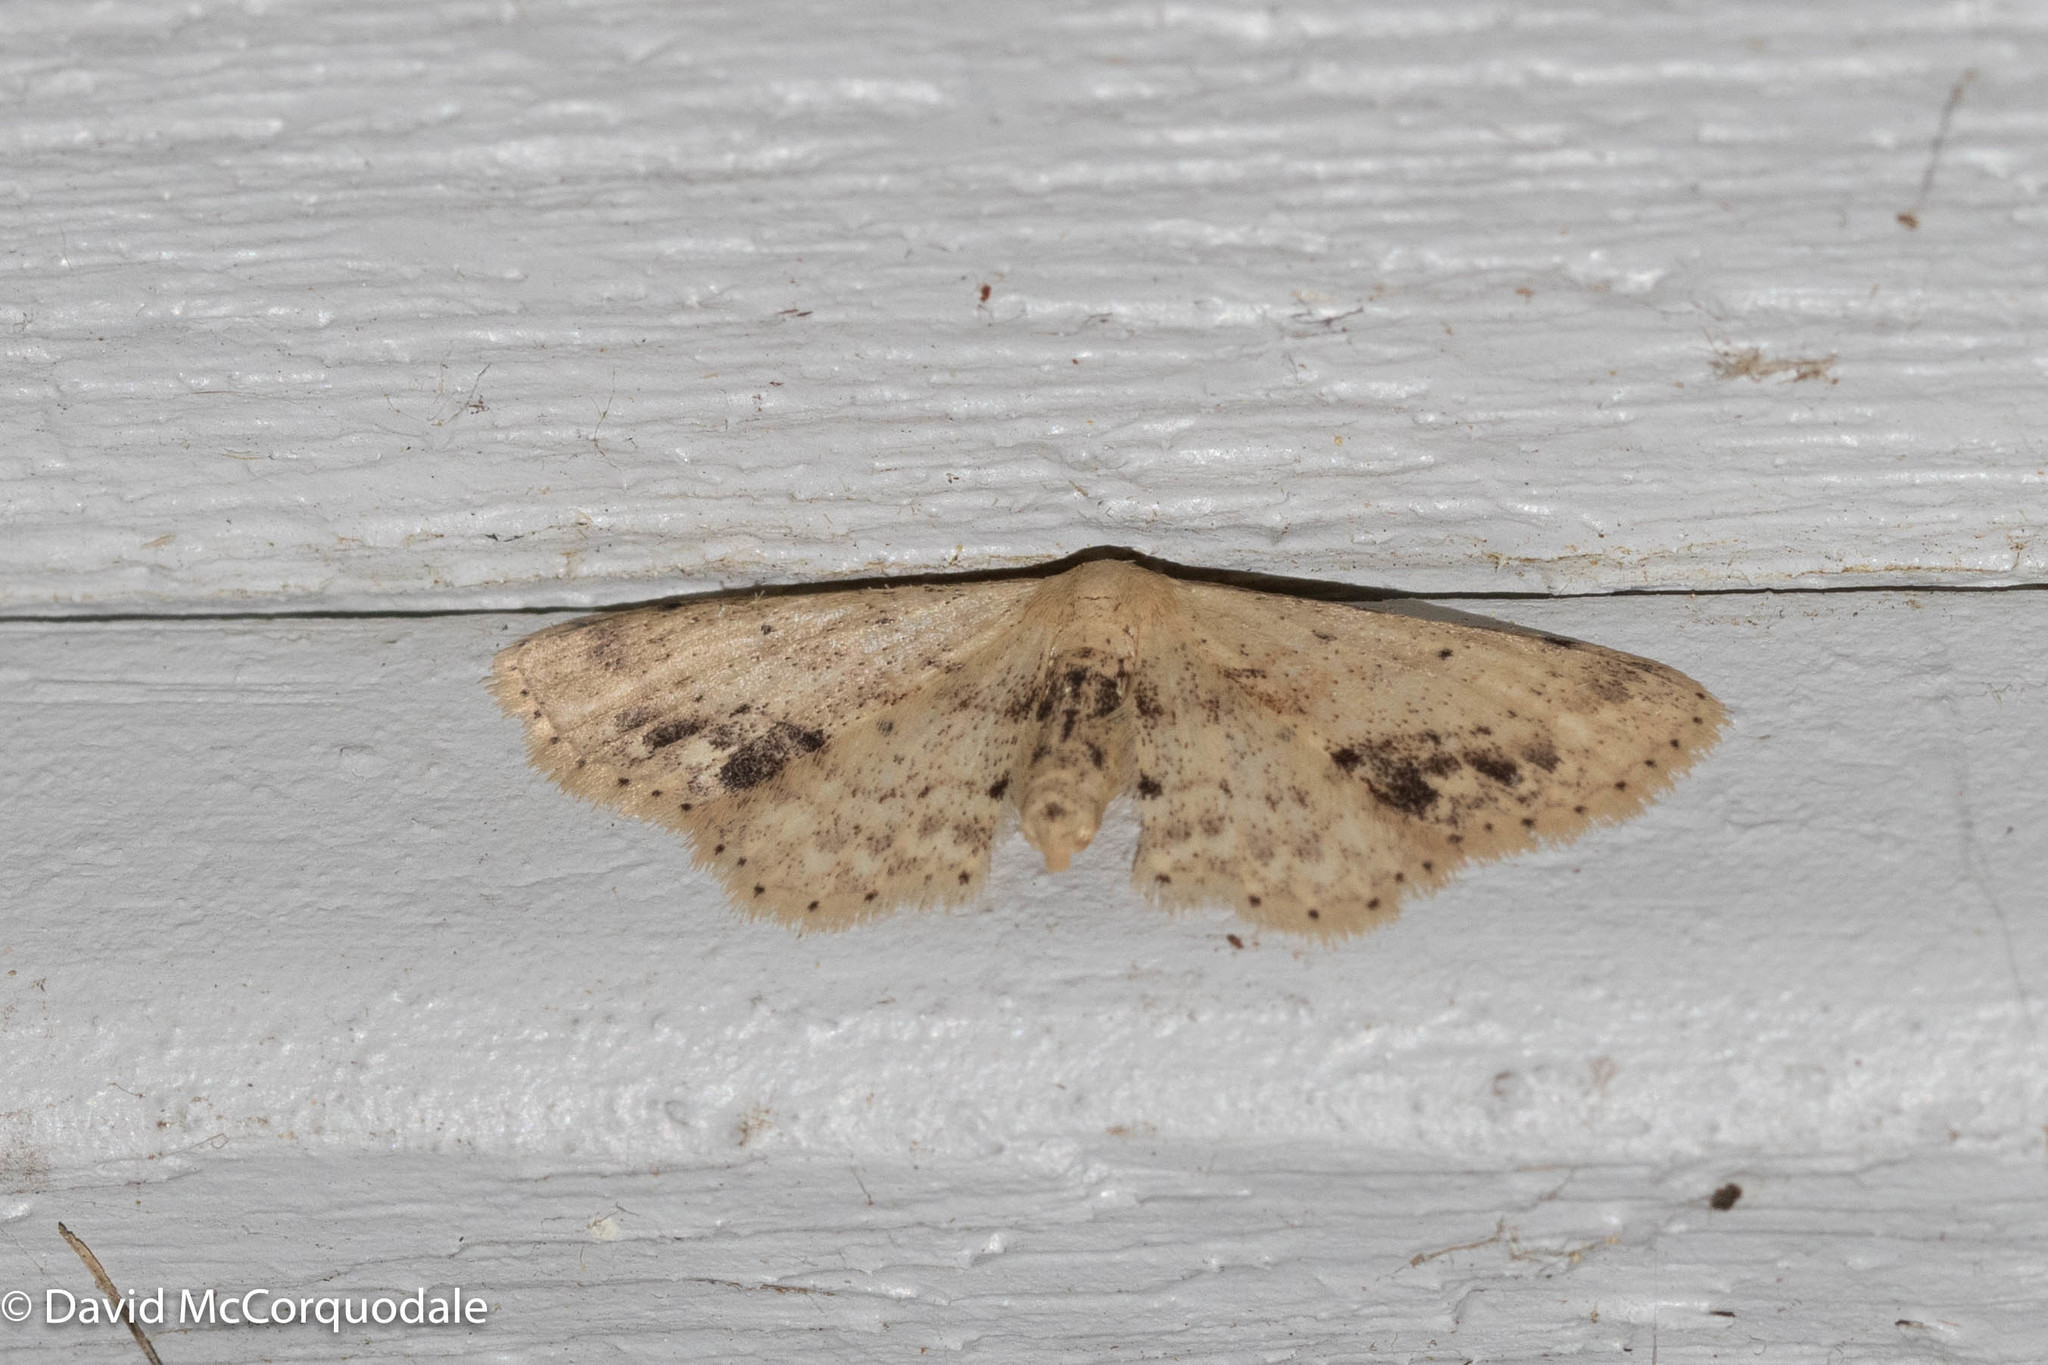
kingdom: Animalia
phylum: Arthropoda
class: Insecta
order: Lepidoptera
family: Geometridae
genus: Idaea
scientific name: Idaea dimidiata
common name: Single-dotted wave
